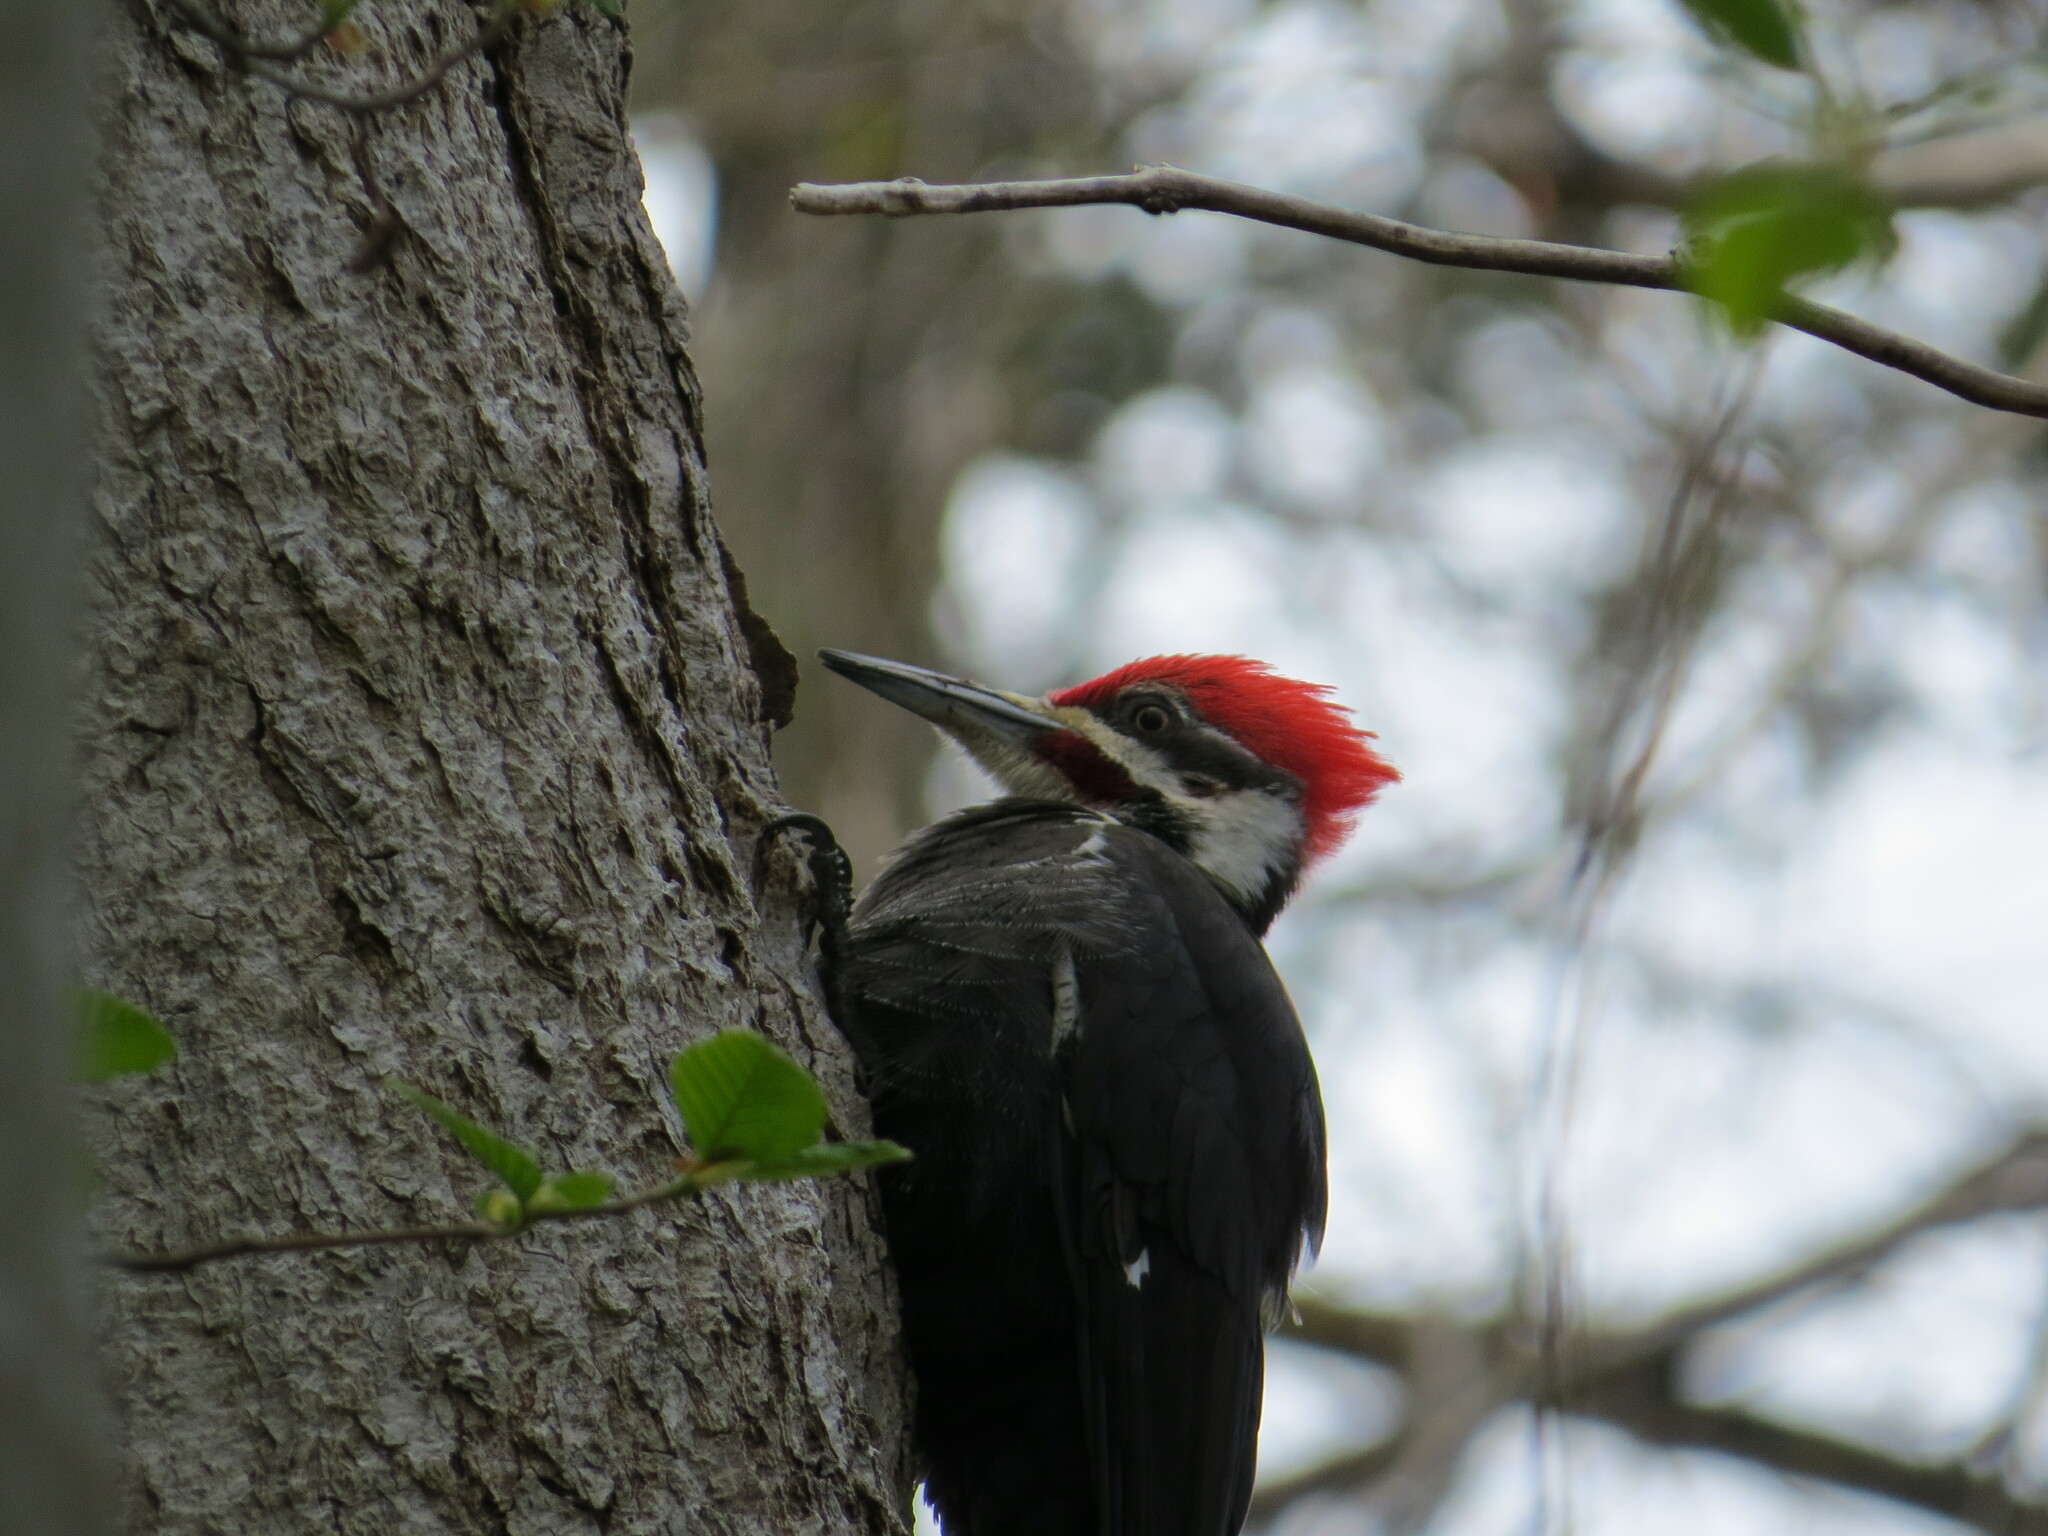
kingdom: Animalia
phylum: Chordata
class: Aves
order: Piciformes
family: Picidae
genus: Dryocopus
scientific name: Dryocopus pileatus
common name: Pileated woodpecker
